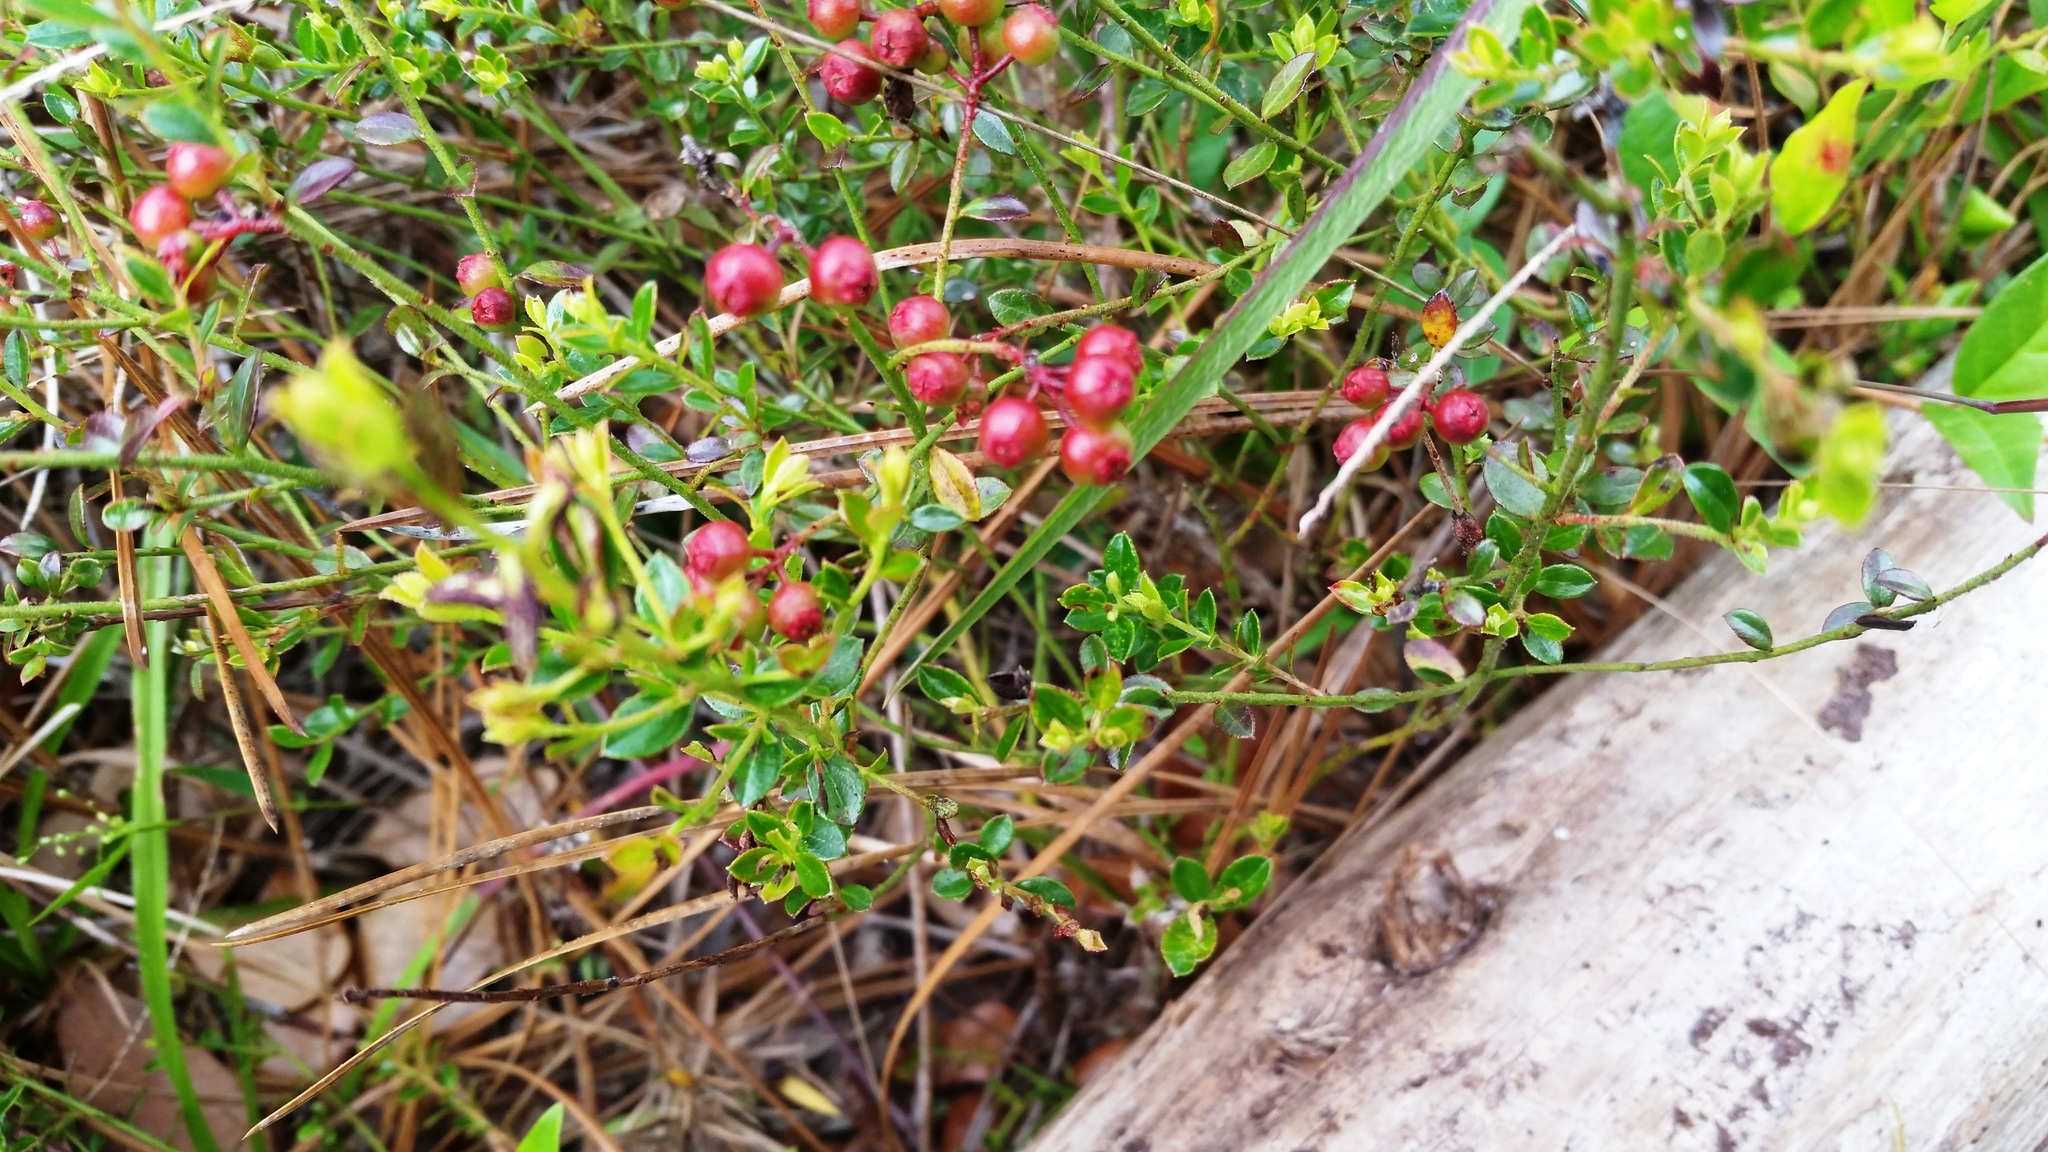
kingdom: Plantae
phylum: Tracheophyta
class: Magnoliopsida
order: Ericales
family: Ericaceae
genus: Vaccinium
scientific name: Vaccinium myrsinites
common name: Evergreen blueberry
